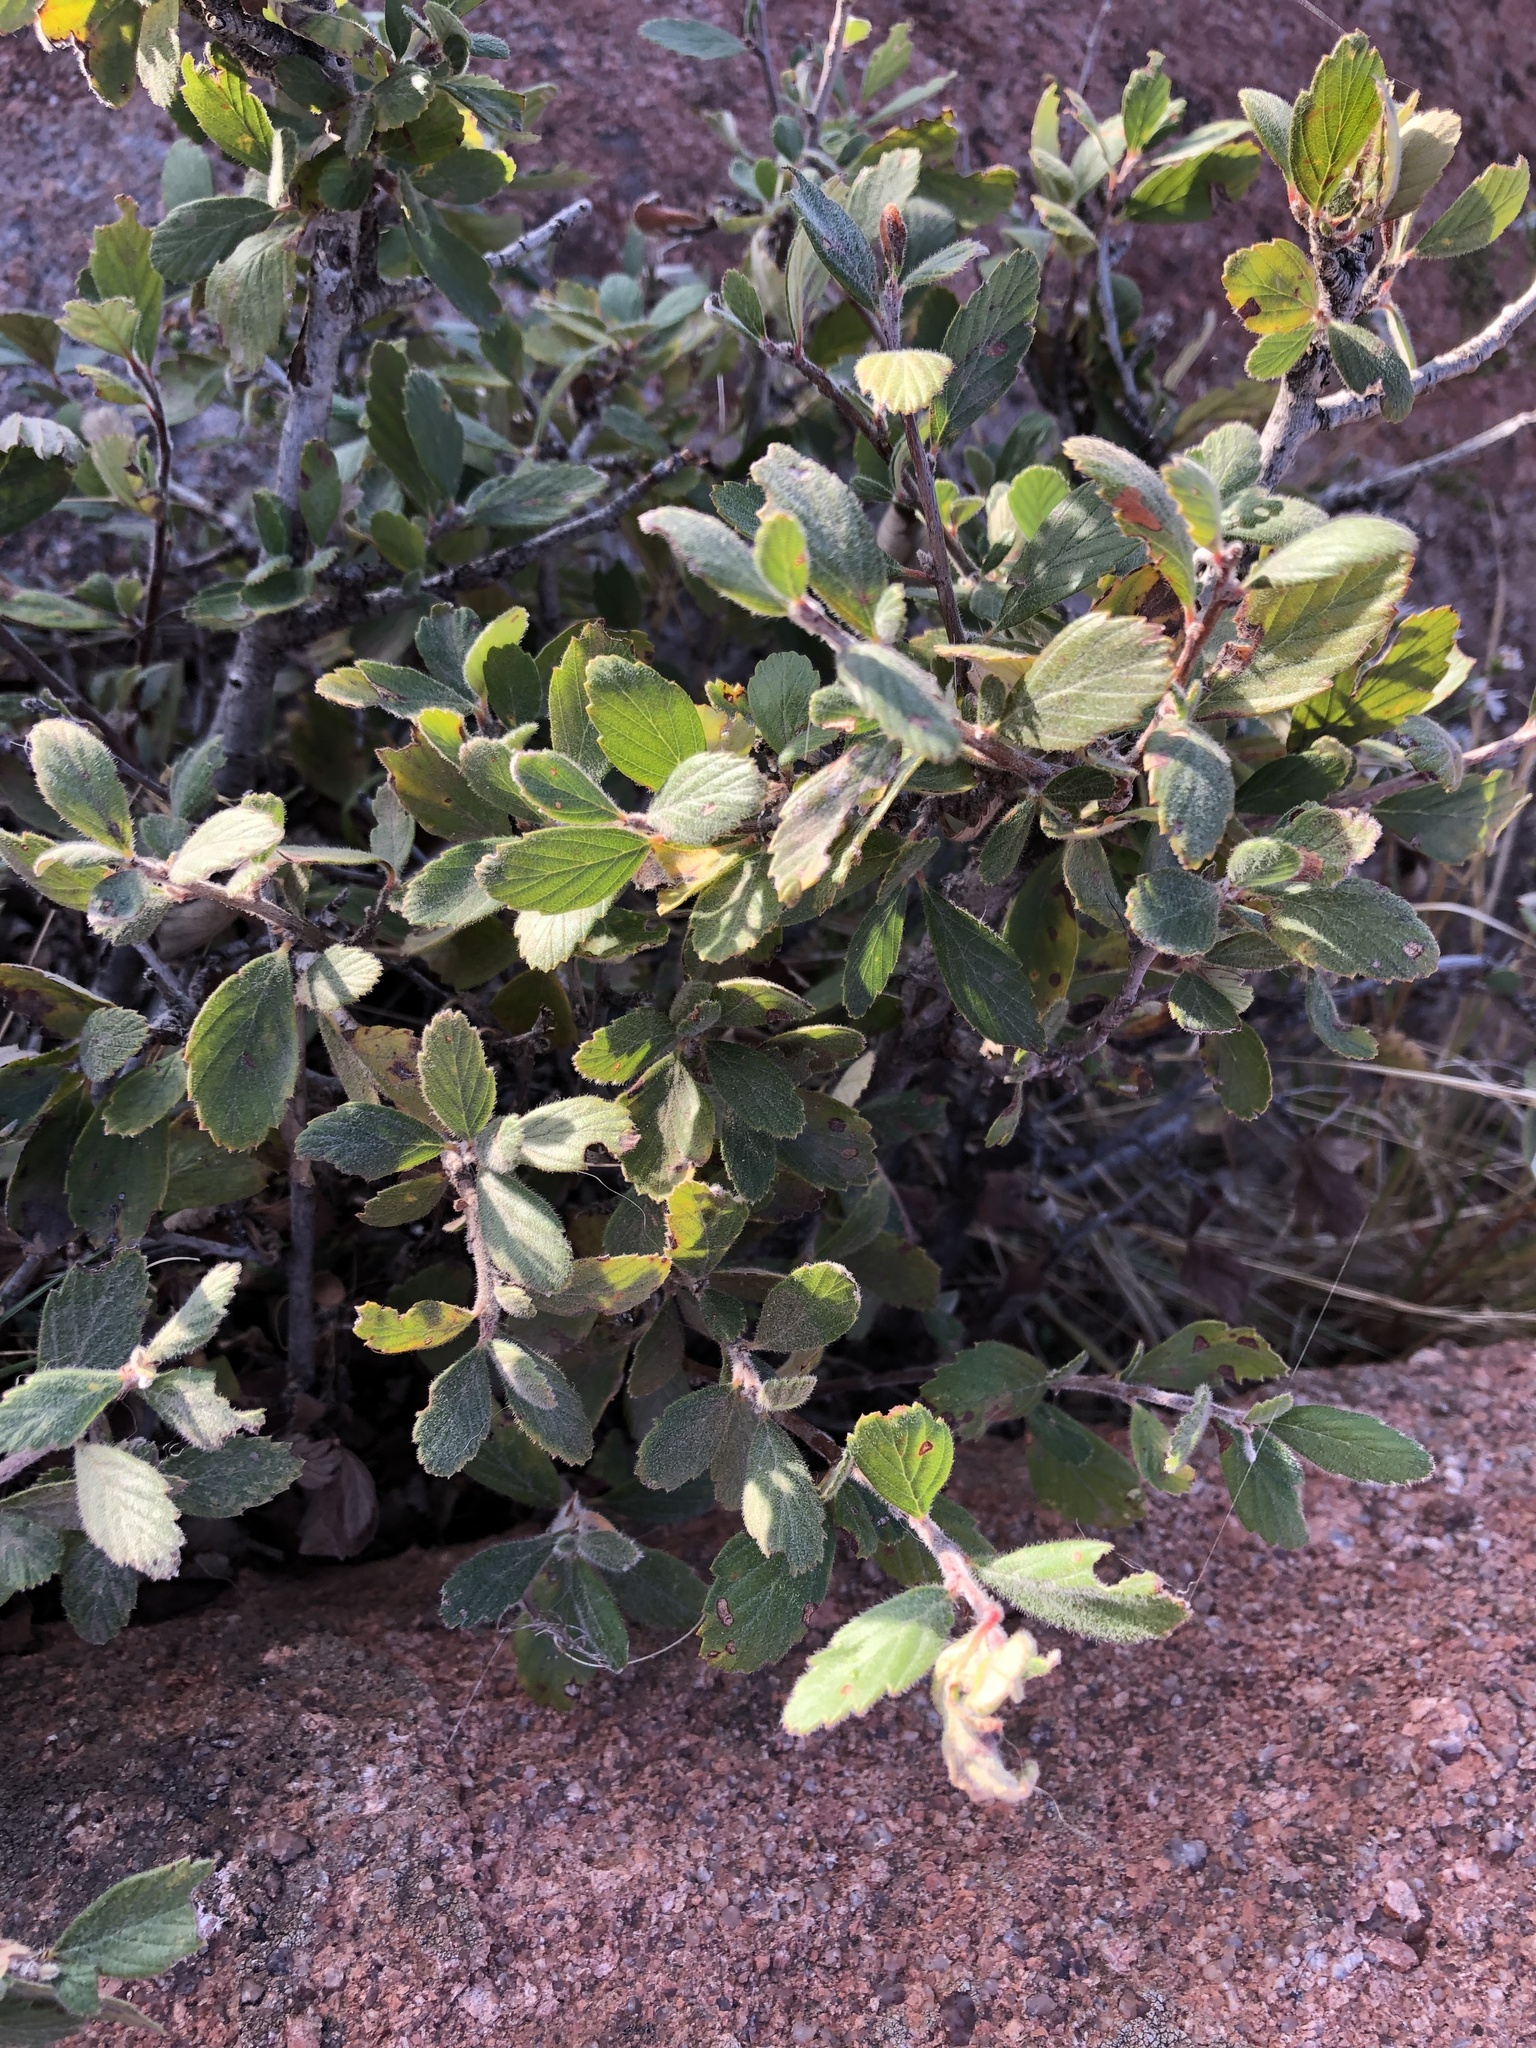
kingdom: Plantae
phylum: Tracheophyta
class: Magnoliopsida
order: Rosales
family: Rosaceae
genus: Cercocarpus
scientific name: Cercocarpus montanus
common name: Alder-leaf cercocarpus
